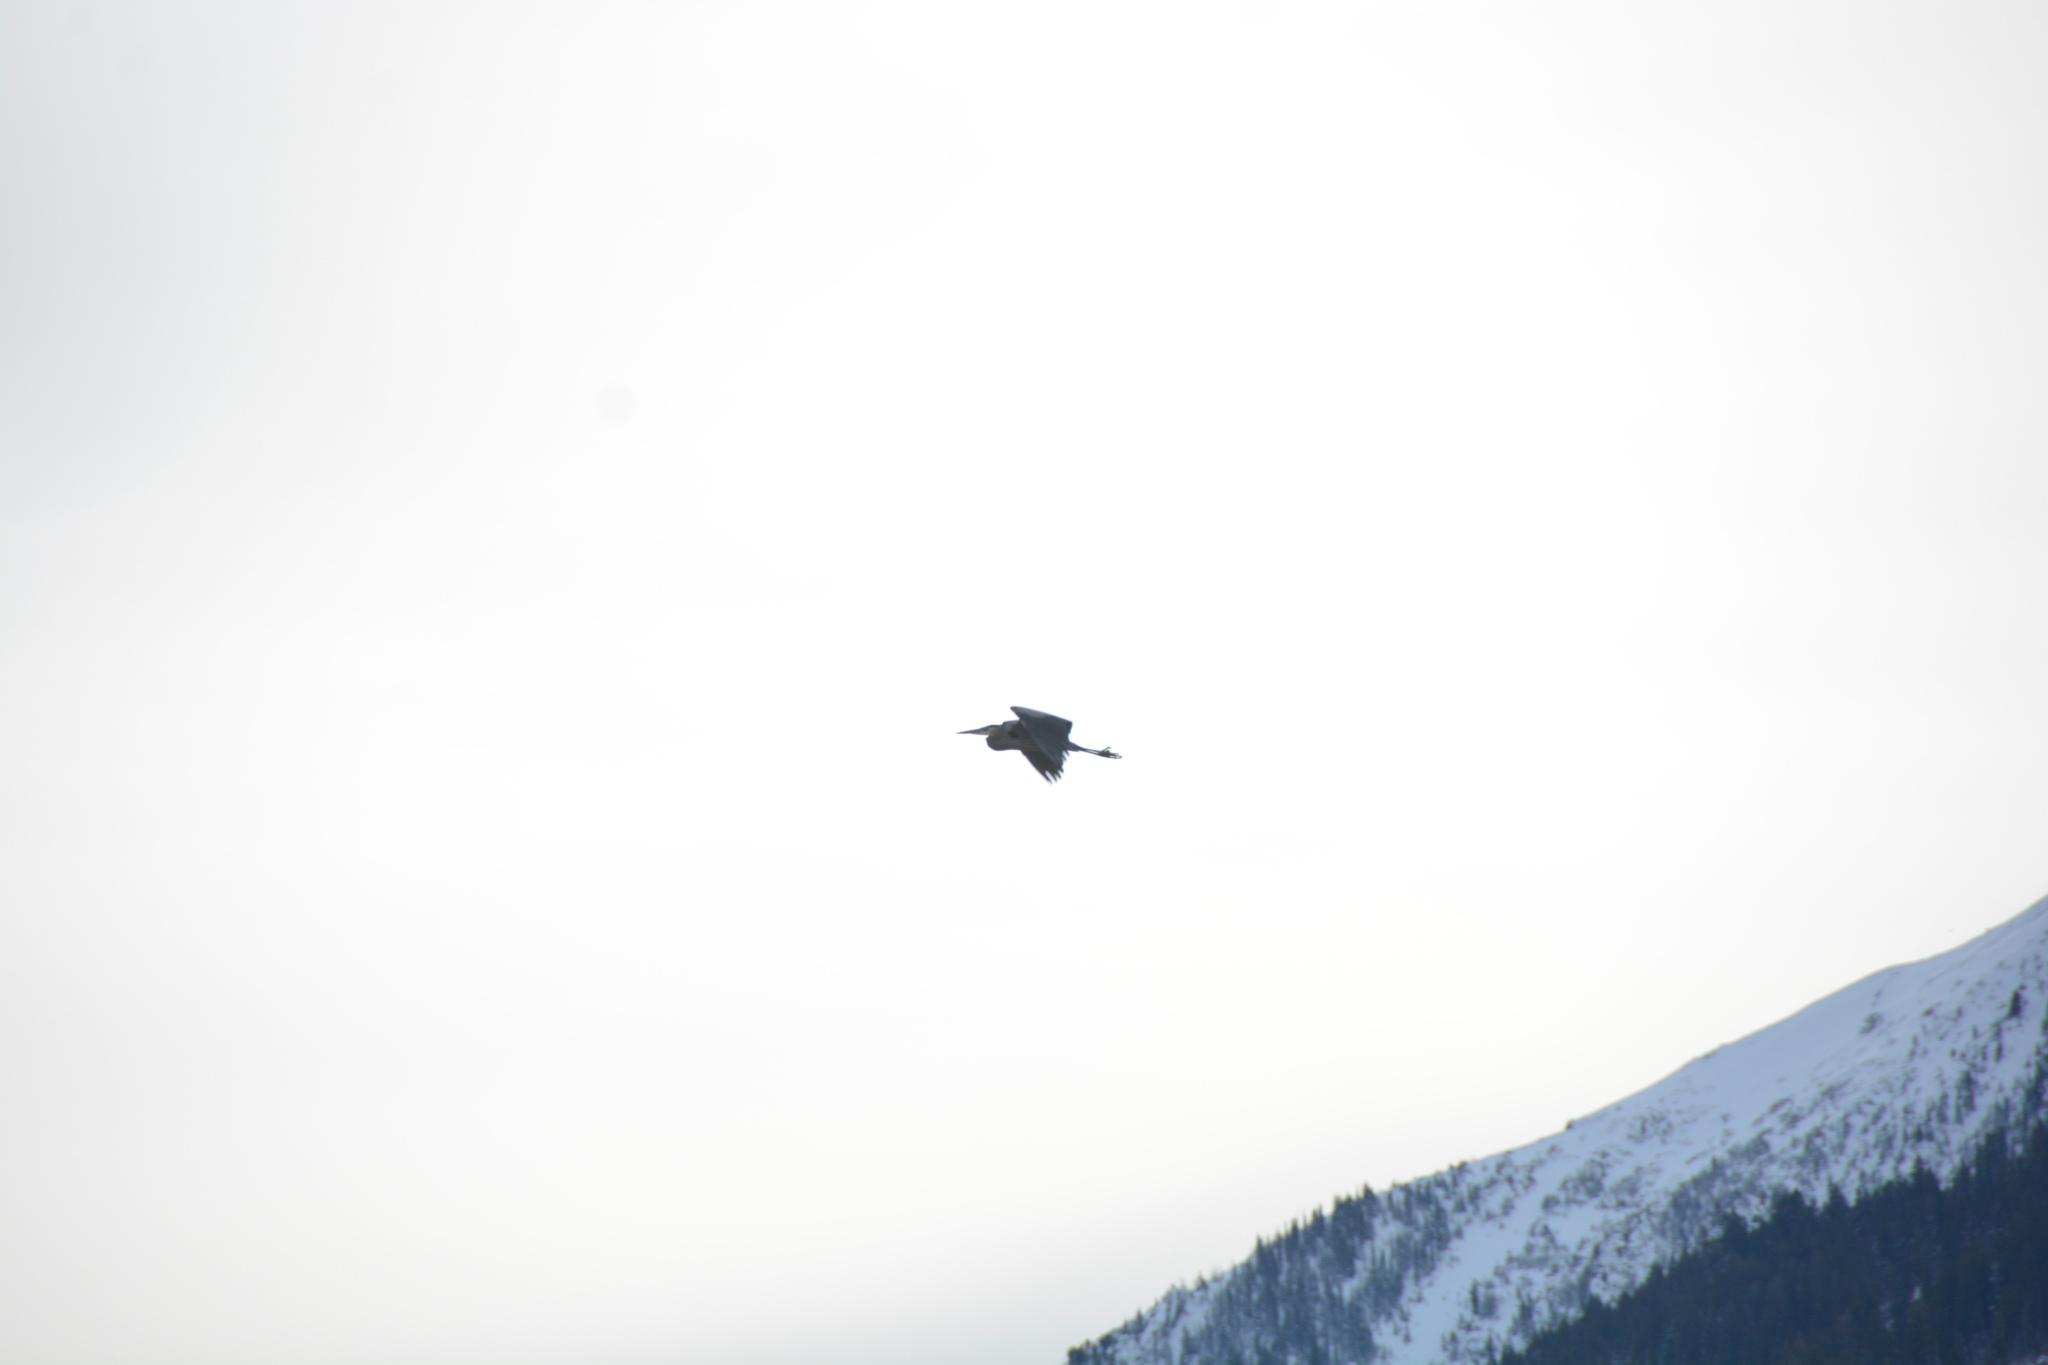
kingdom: Animalia
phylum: Chordata
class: Aves
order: Pelecaniformes
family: Ardeidae
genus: Ardea
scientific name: Ardea herodias
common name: Great blue heron
